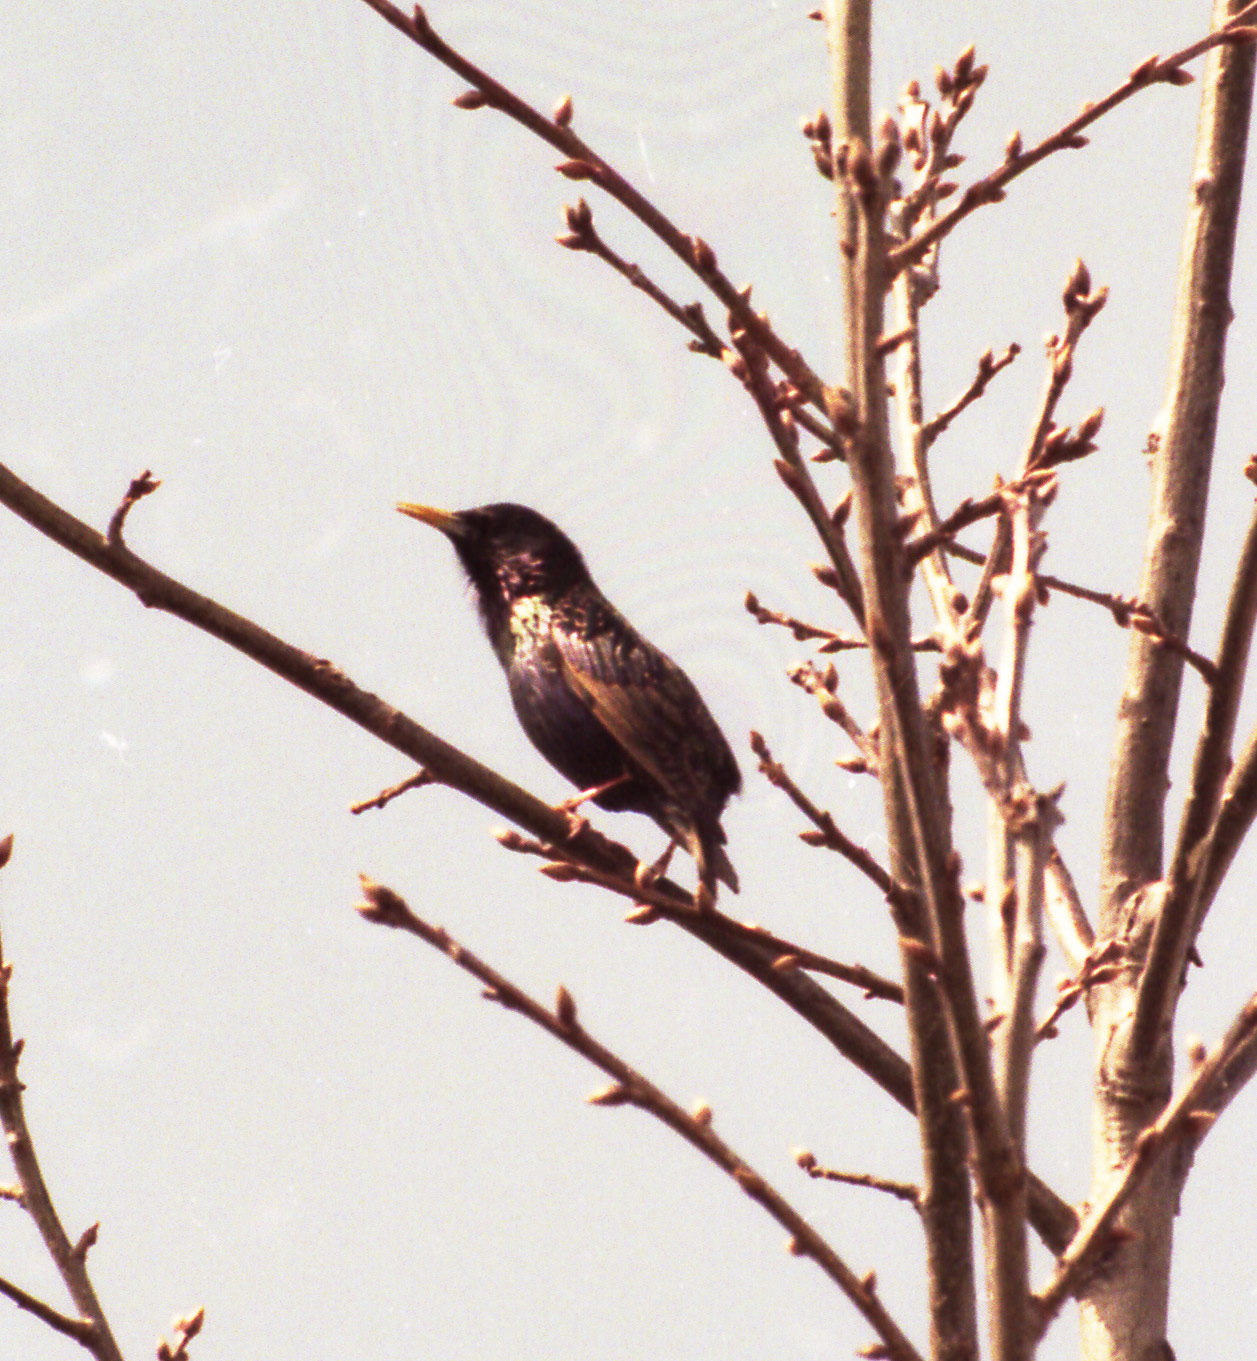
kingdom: Animalia
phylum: Chordata
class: Aves
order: Passeriformes
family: Sturnidae
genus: Sturnus
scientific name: Sturnus vulgaris
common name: Common starling
